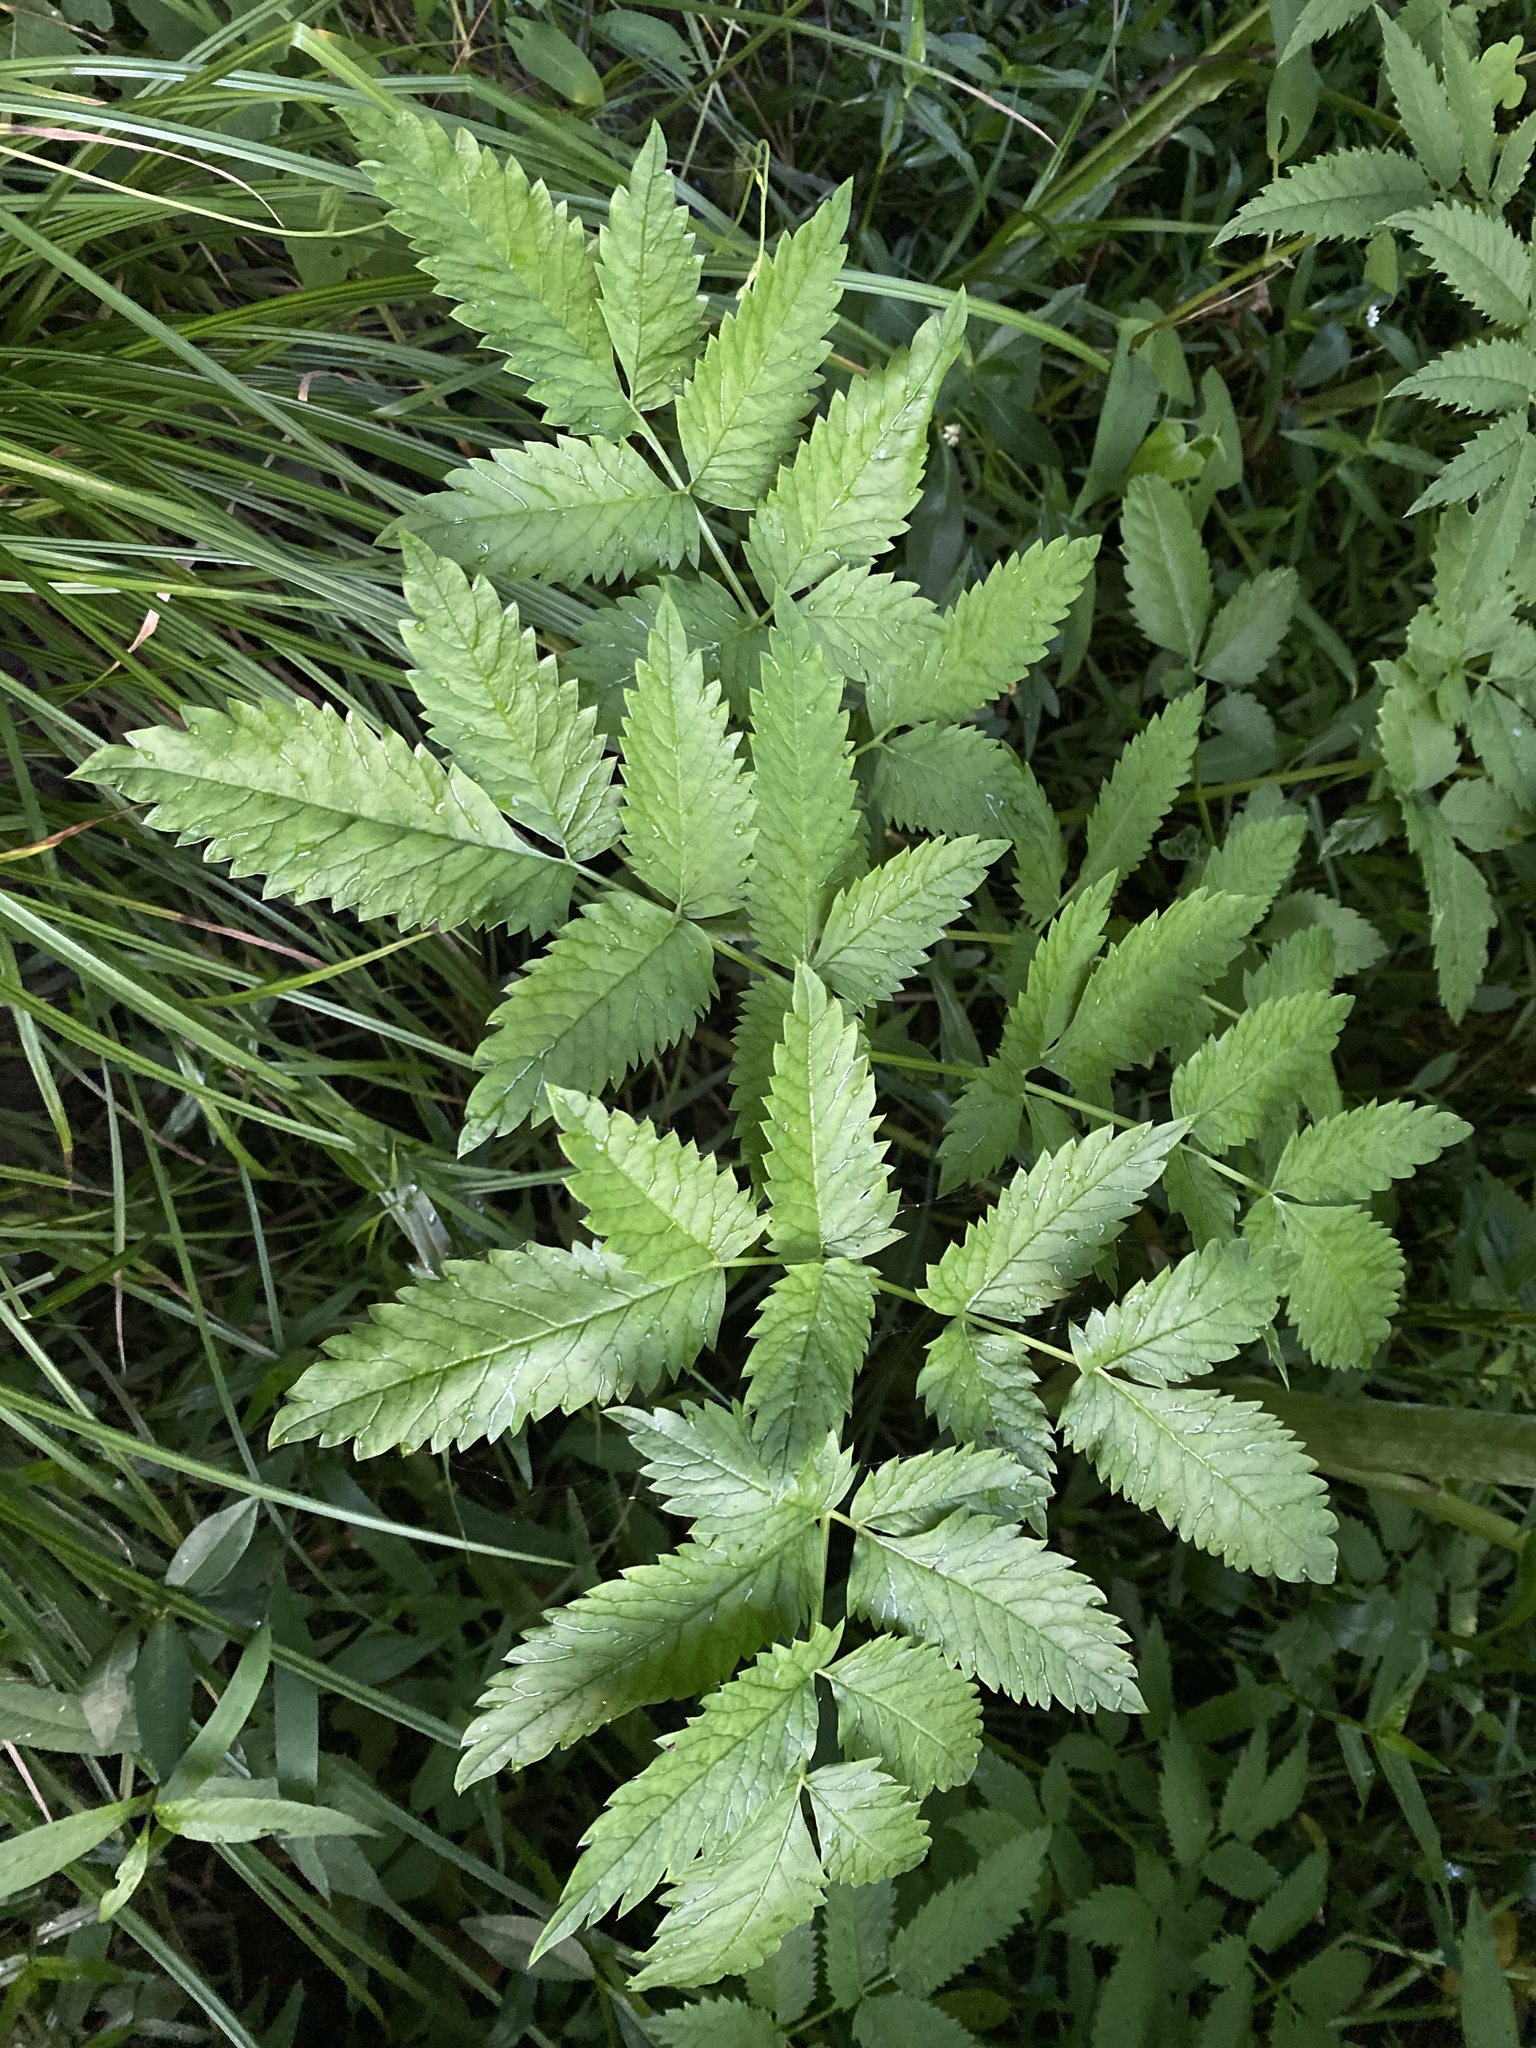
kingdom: Plantae
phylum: Tracheophyta
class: Magnoliopsida
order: Apiales
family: Apiaceae
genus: Cicuta
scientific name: Cicuta maculata
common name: Spotted cowbane
